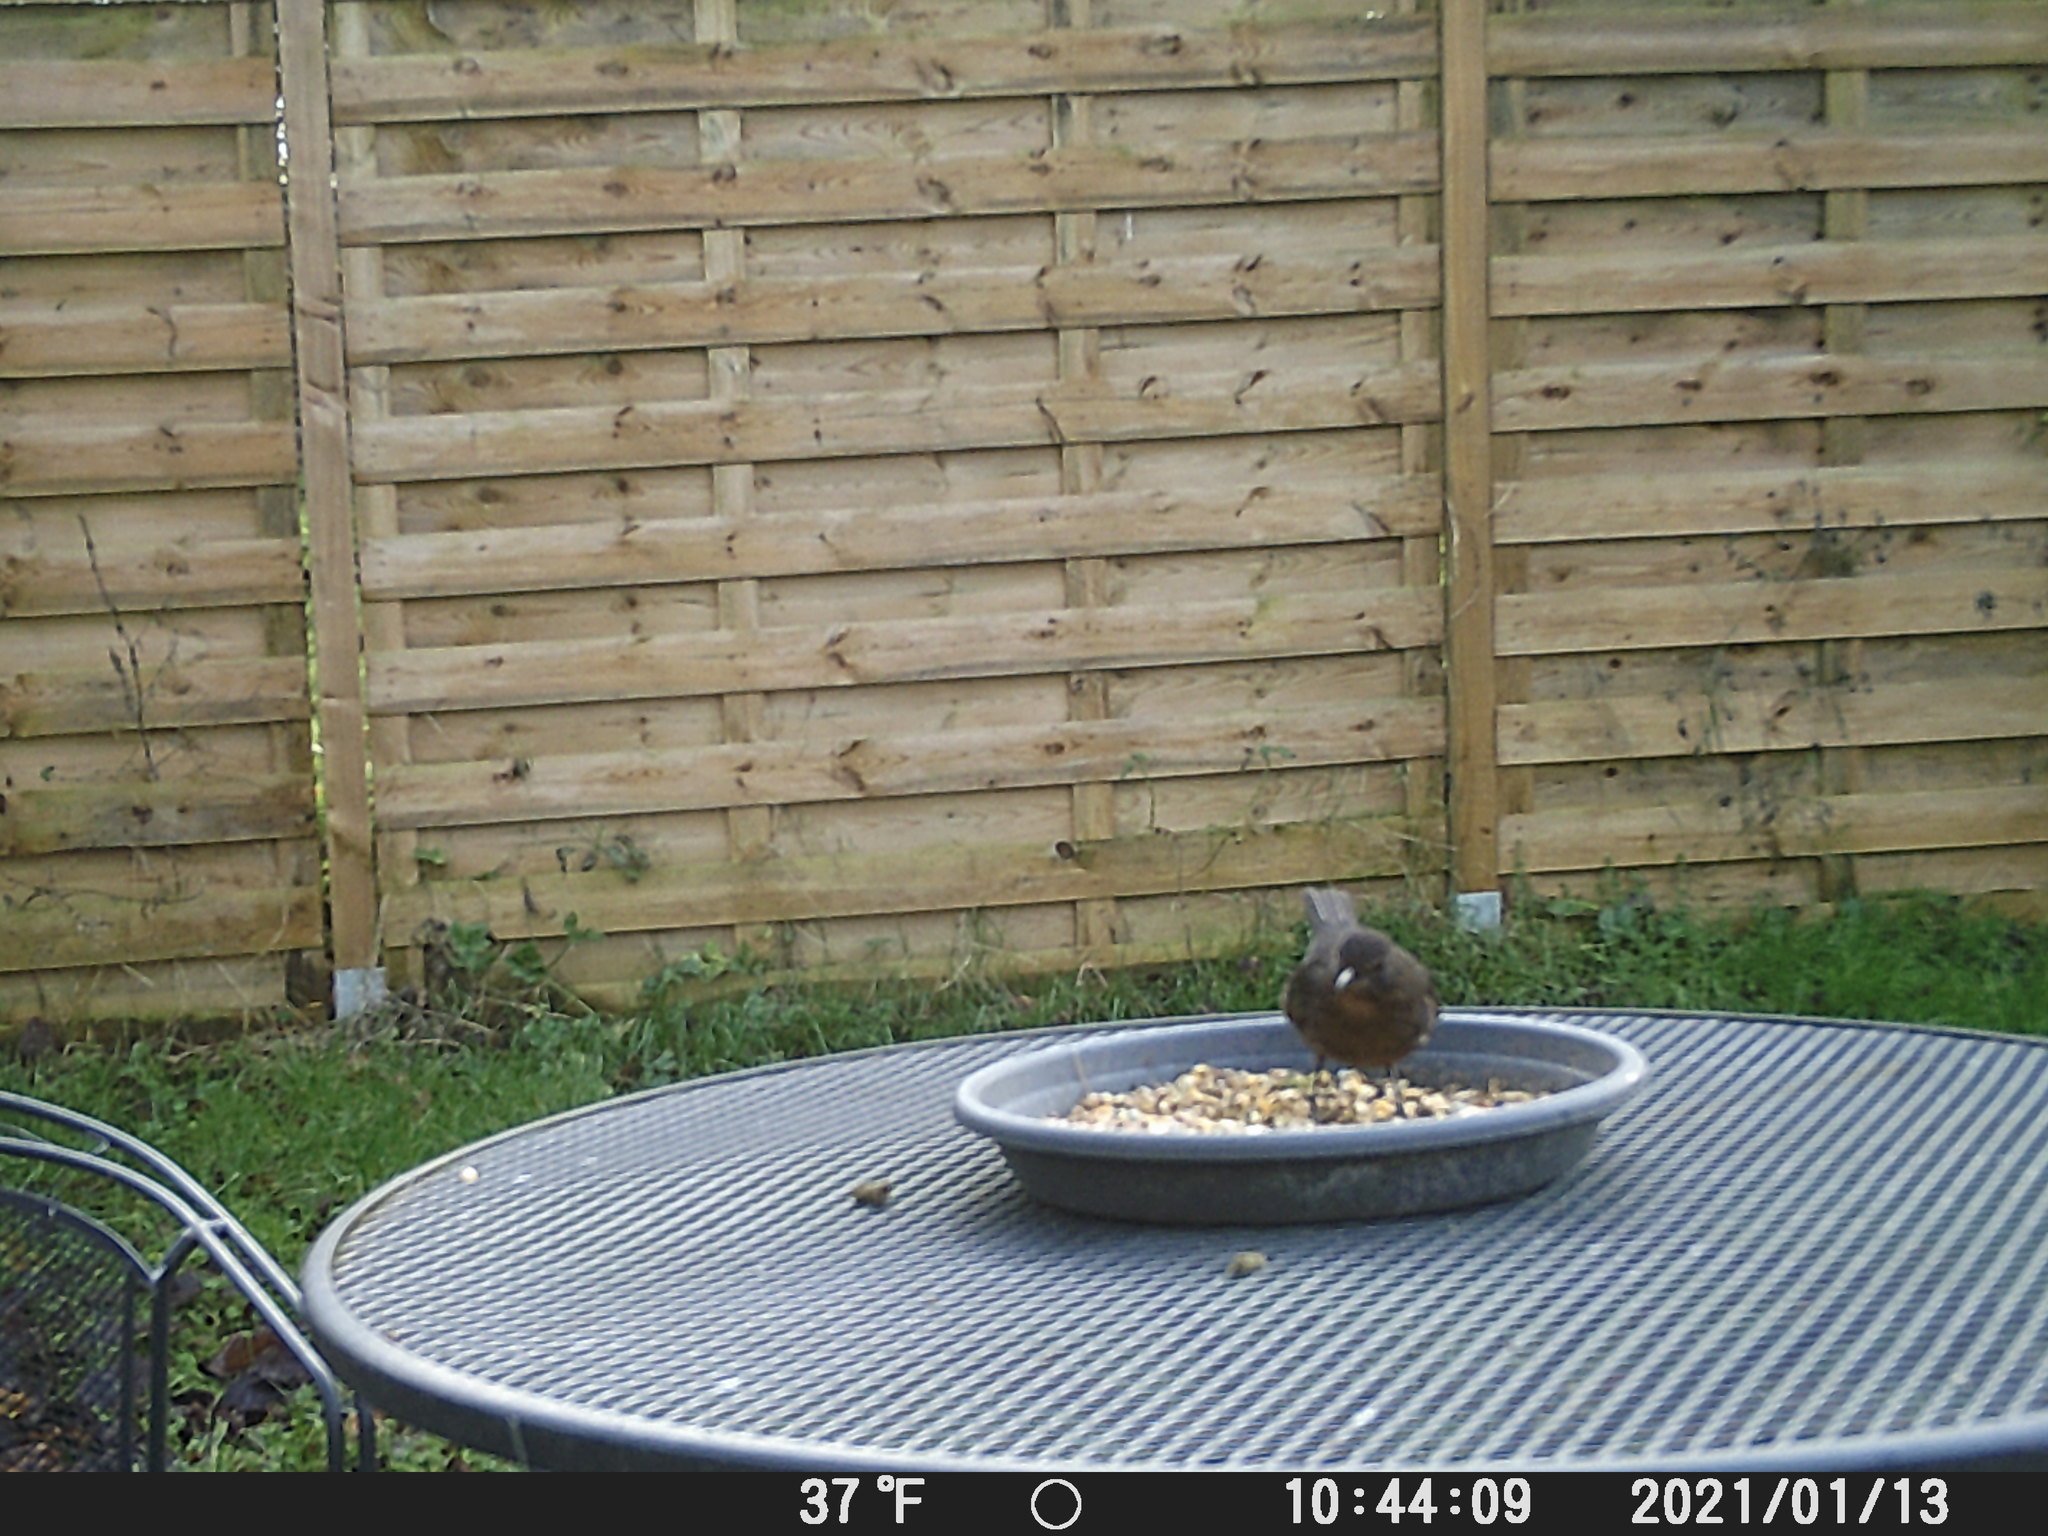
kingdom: Animalia
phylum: Chordata
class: Aves
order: Passeriformes
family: Turdidae
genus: Turdus
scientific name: Turdus merula
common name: Common blackbird
